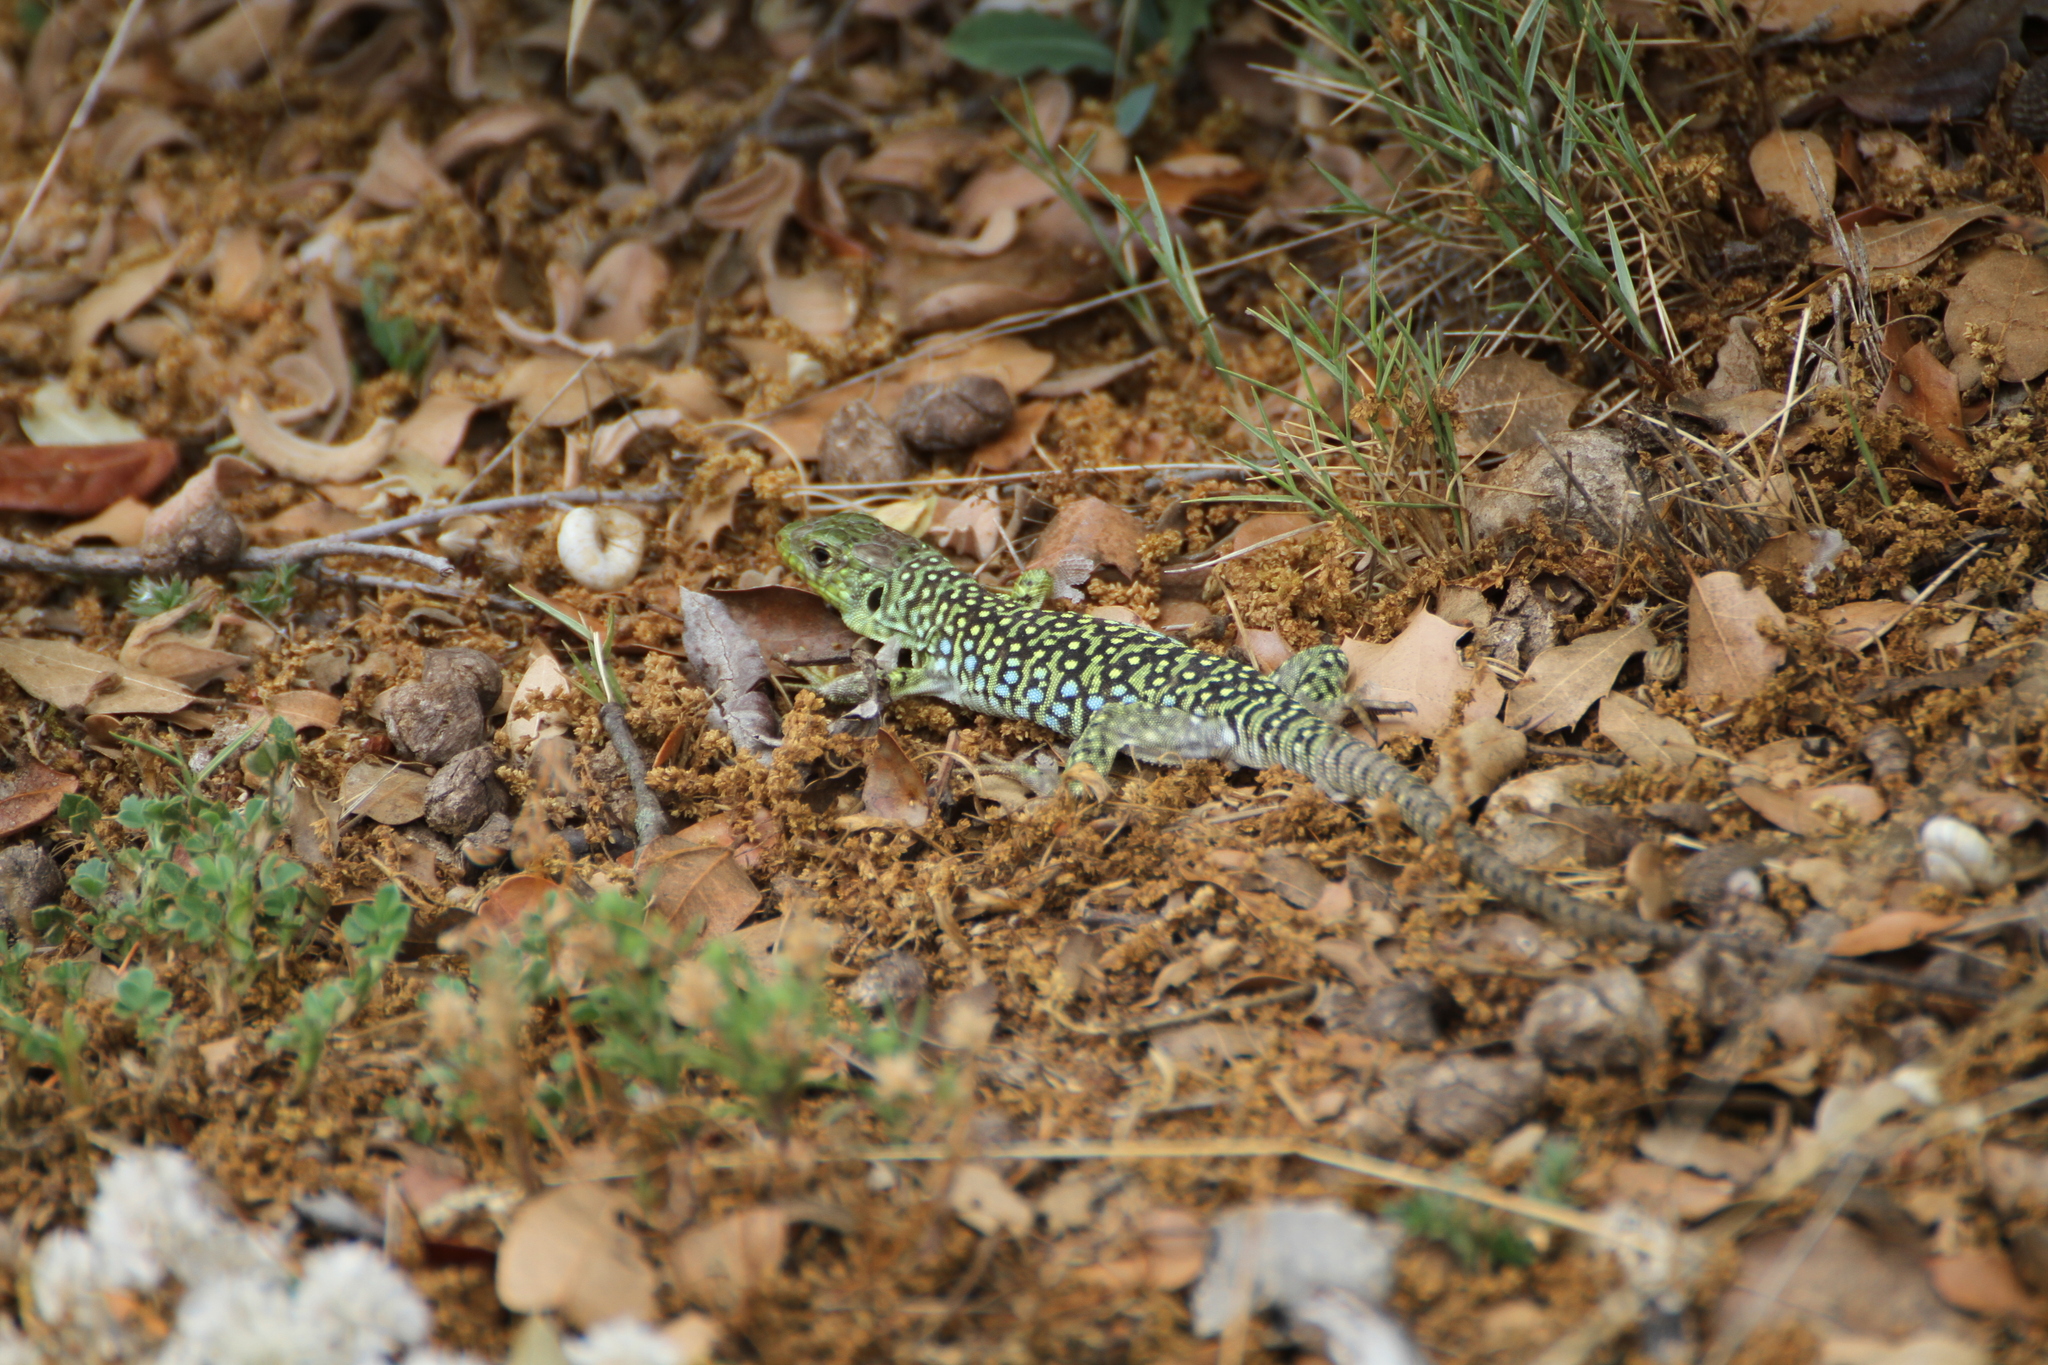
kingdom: Animalia
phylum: Chordata
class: Squamata
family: Lacertidae
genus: Timon
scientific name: Timon lepidus
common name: Ocellated lizard
